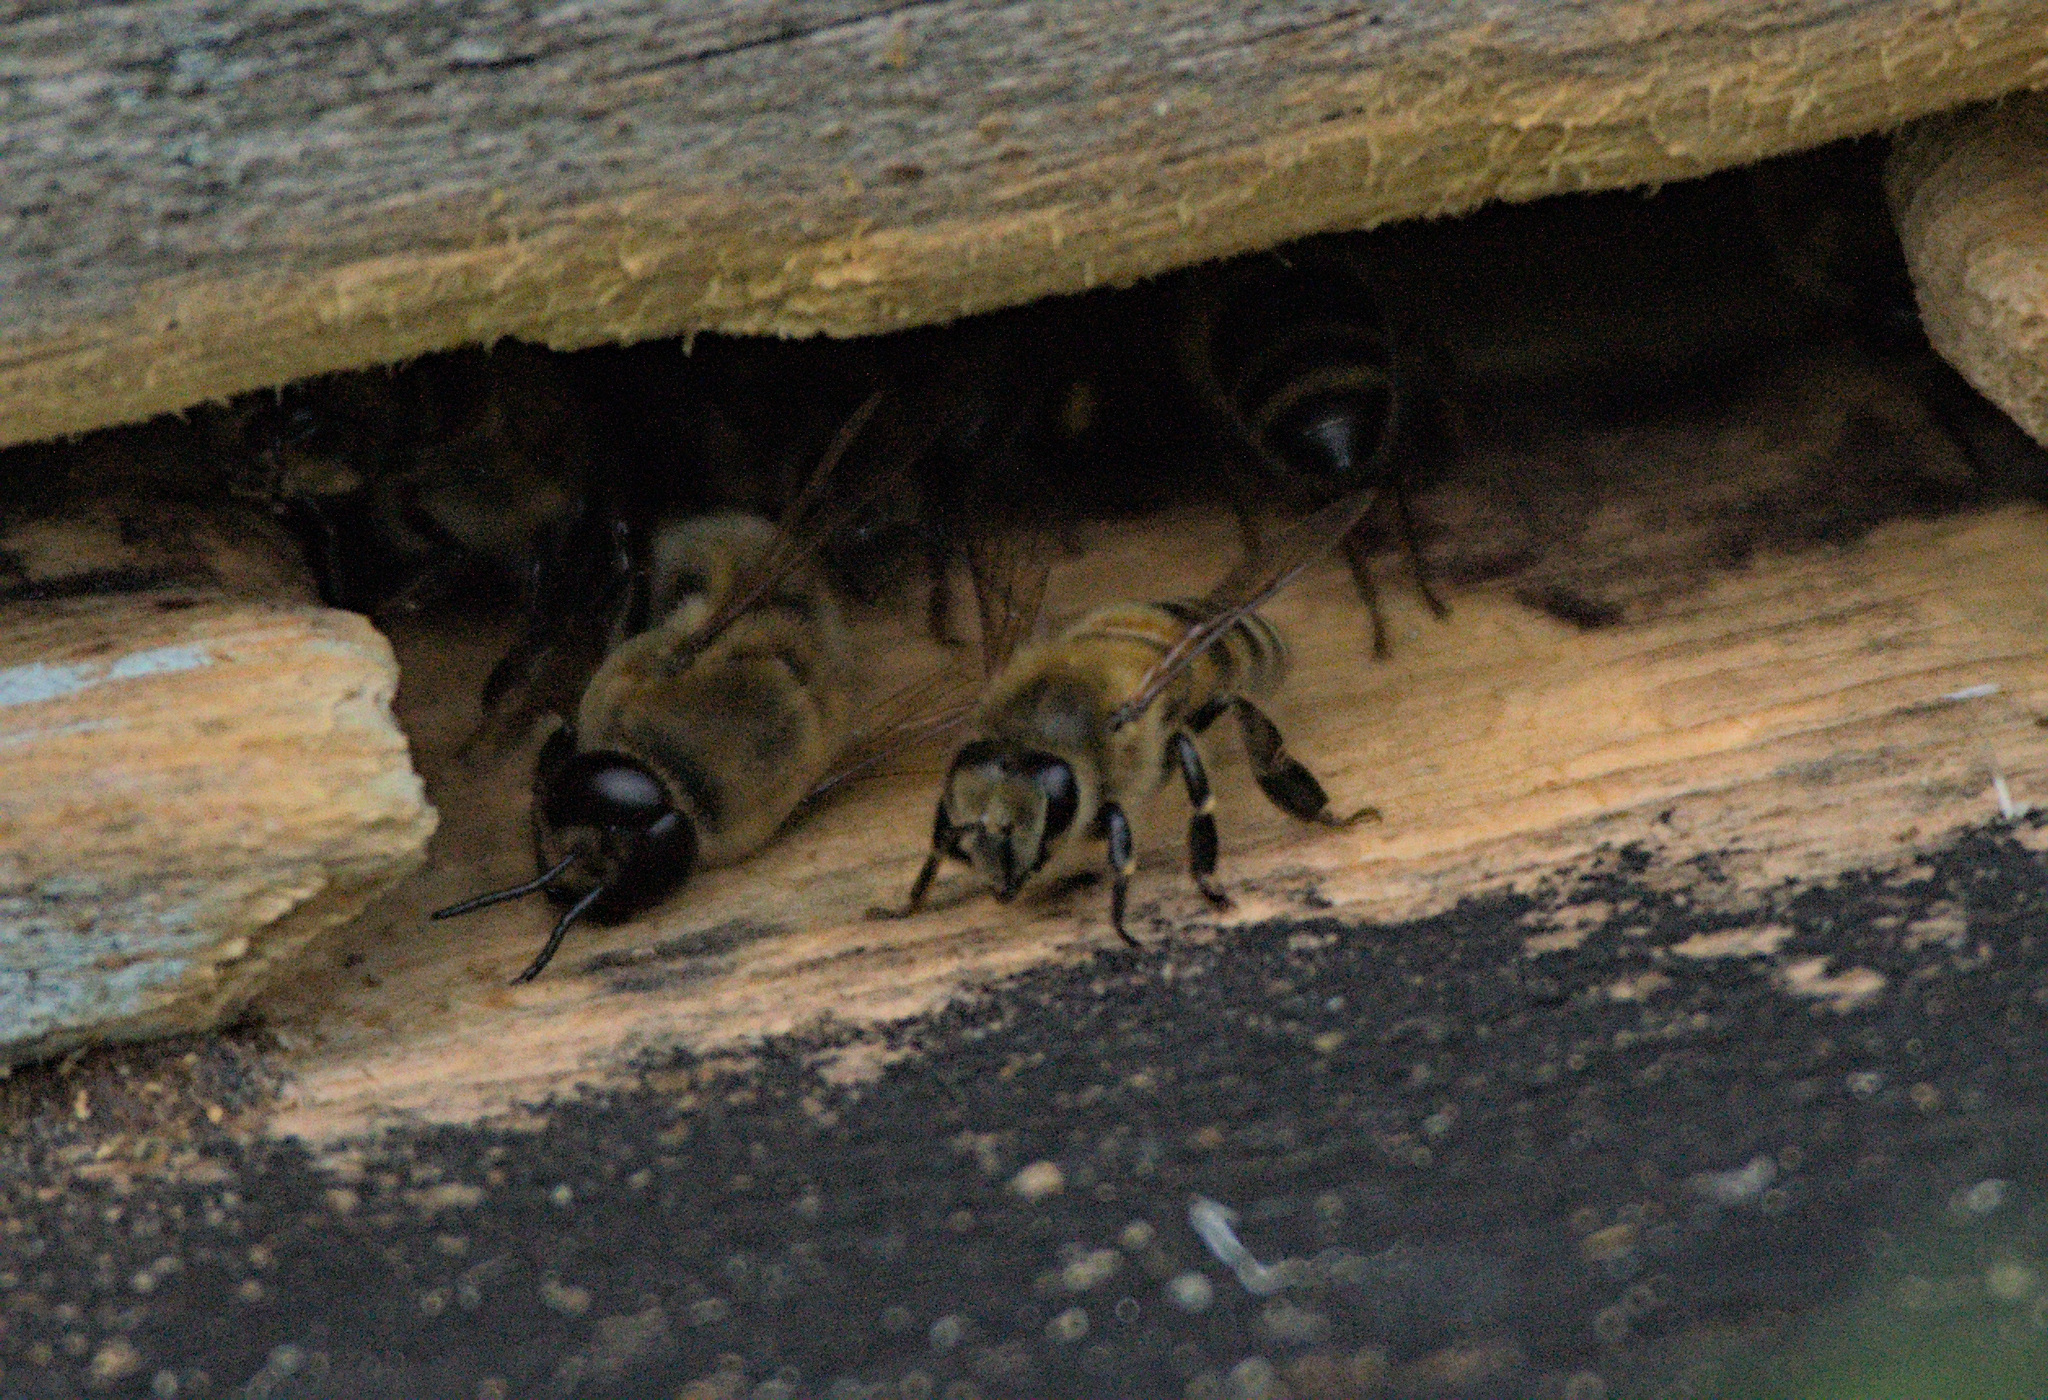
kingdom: Animalia
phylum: Arthropoda
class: Insecta
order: Hymenoptera
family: Apidae
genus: Apis
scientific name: Apis mellifera
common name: Honey bee
